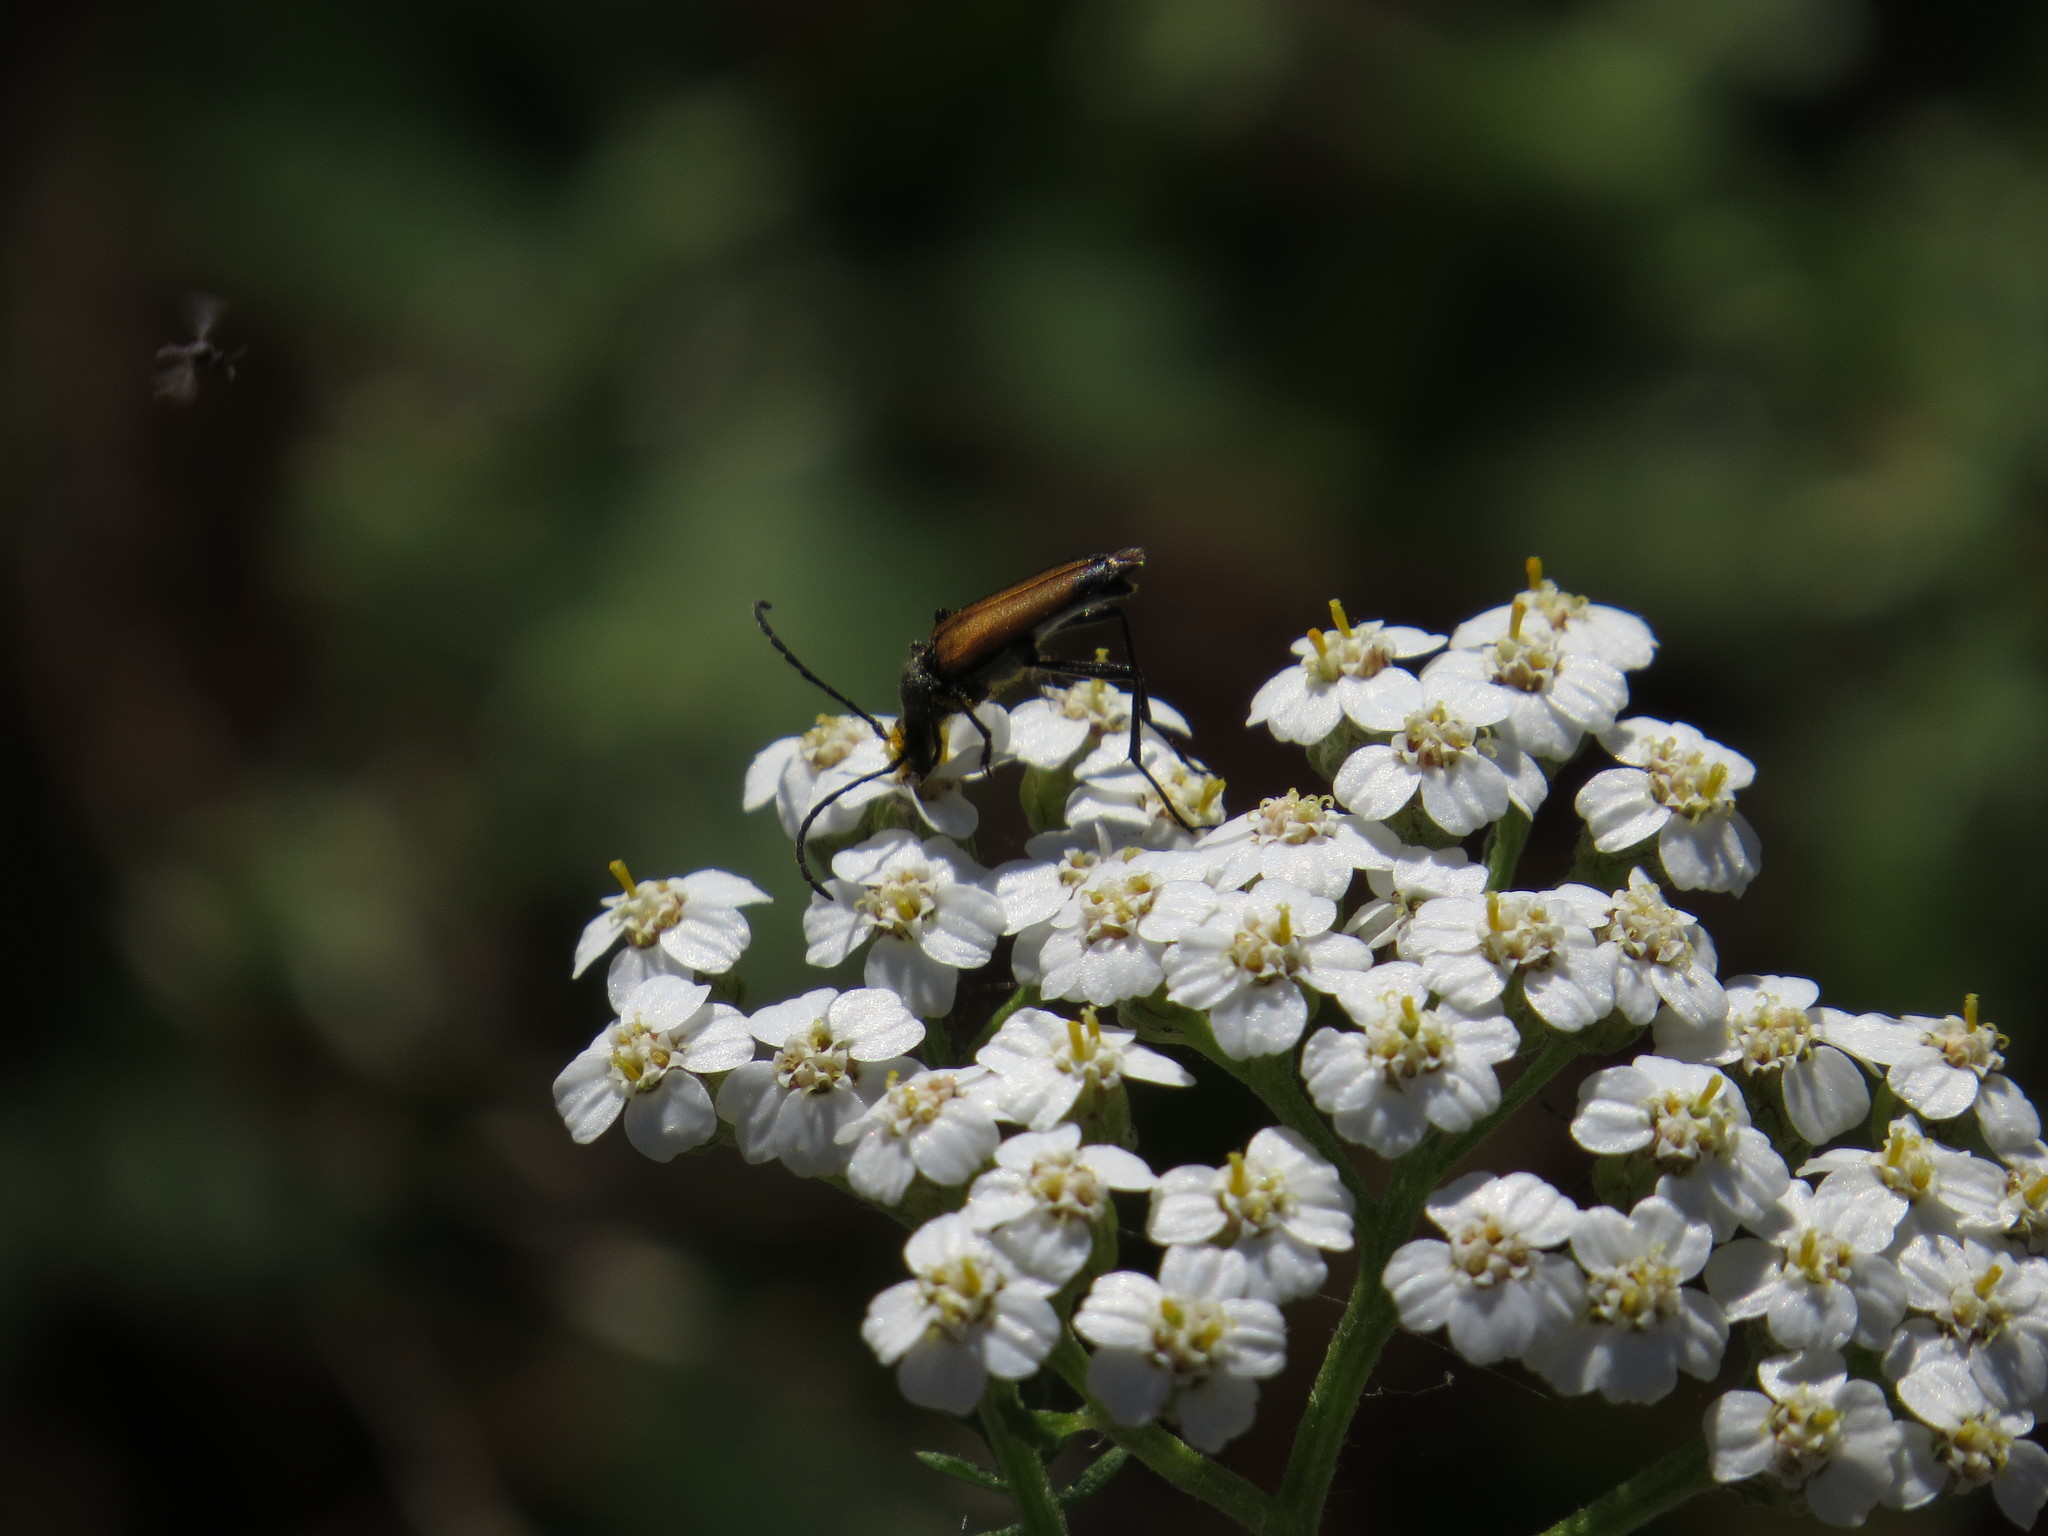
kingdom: Animalia
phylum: Arthropoda
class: Insecta
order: Coleoptera
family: Cerambycidae
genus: Anastrangalia
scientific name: Anastrangalia sanguinolenta
